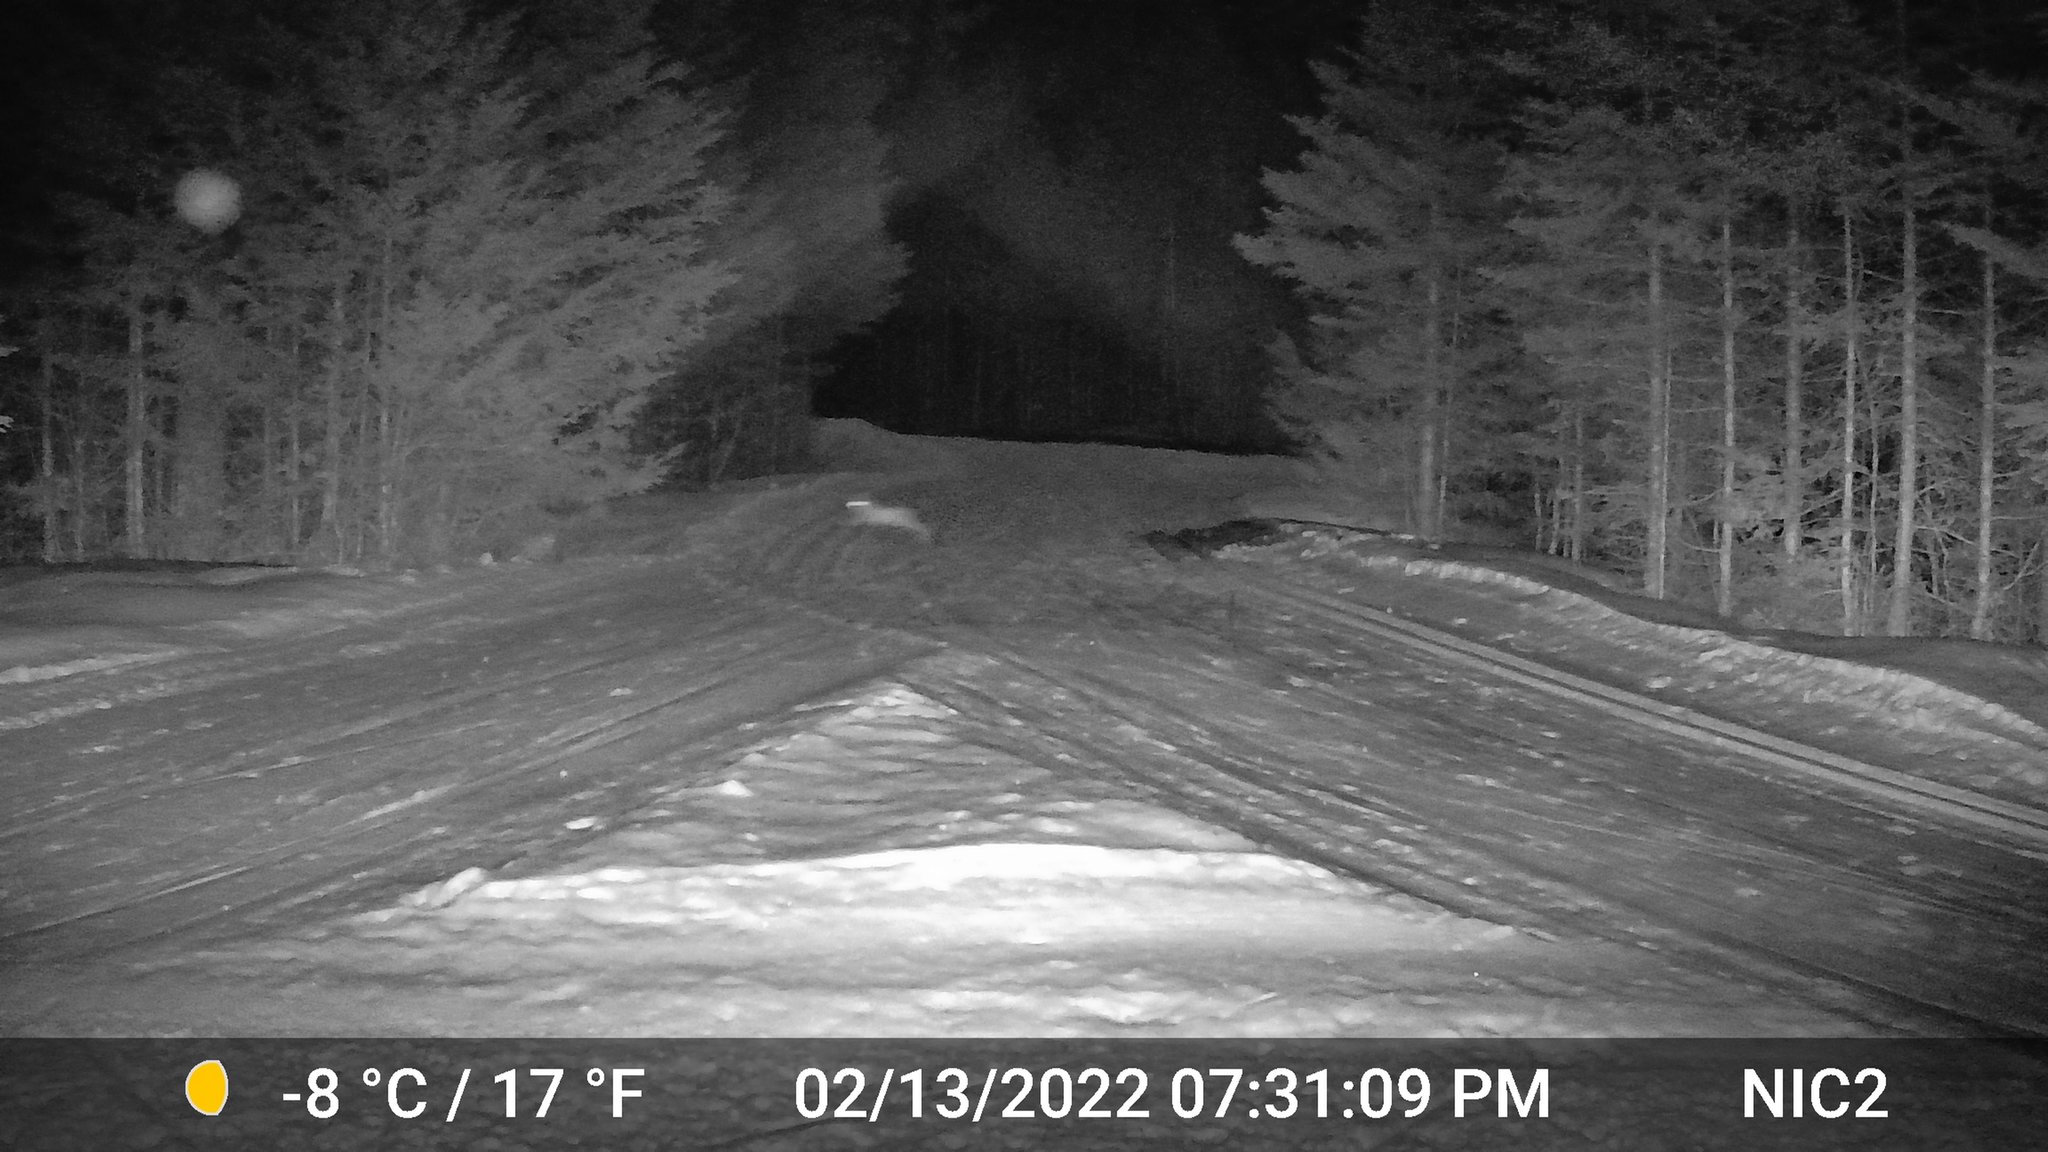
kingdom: Animalia
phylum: Chordata
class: Mammalia
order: Lagomorpha
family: Leporidae
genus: Lepus
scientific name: Lepus americanus
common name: Snowshoe hare
